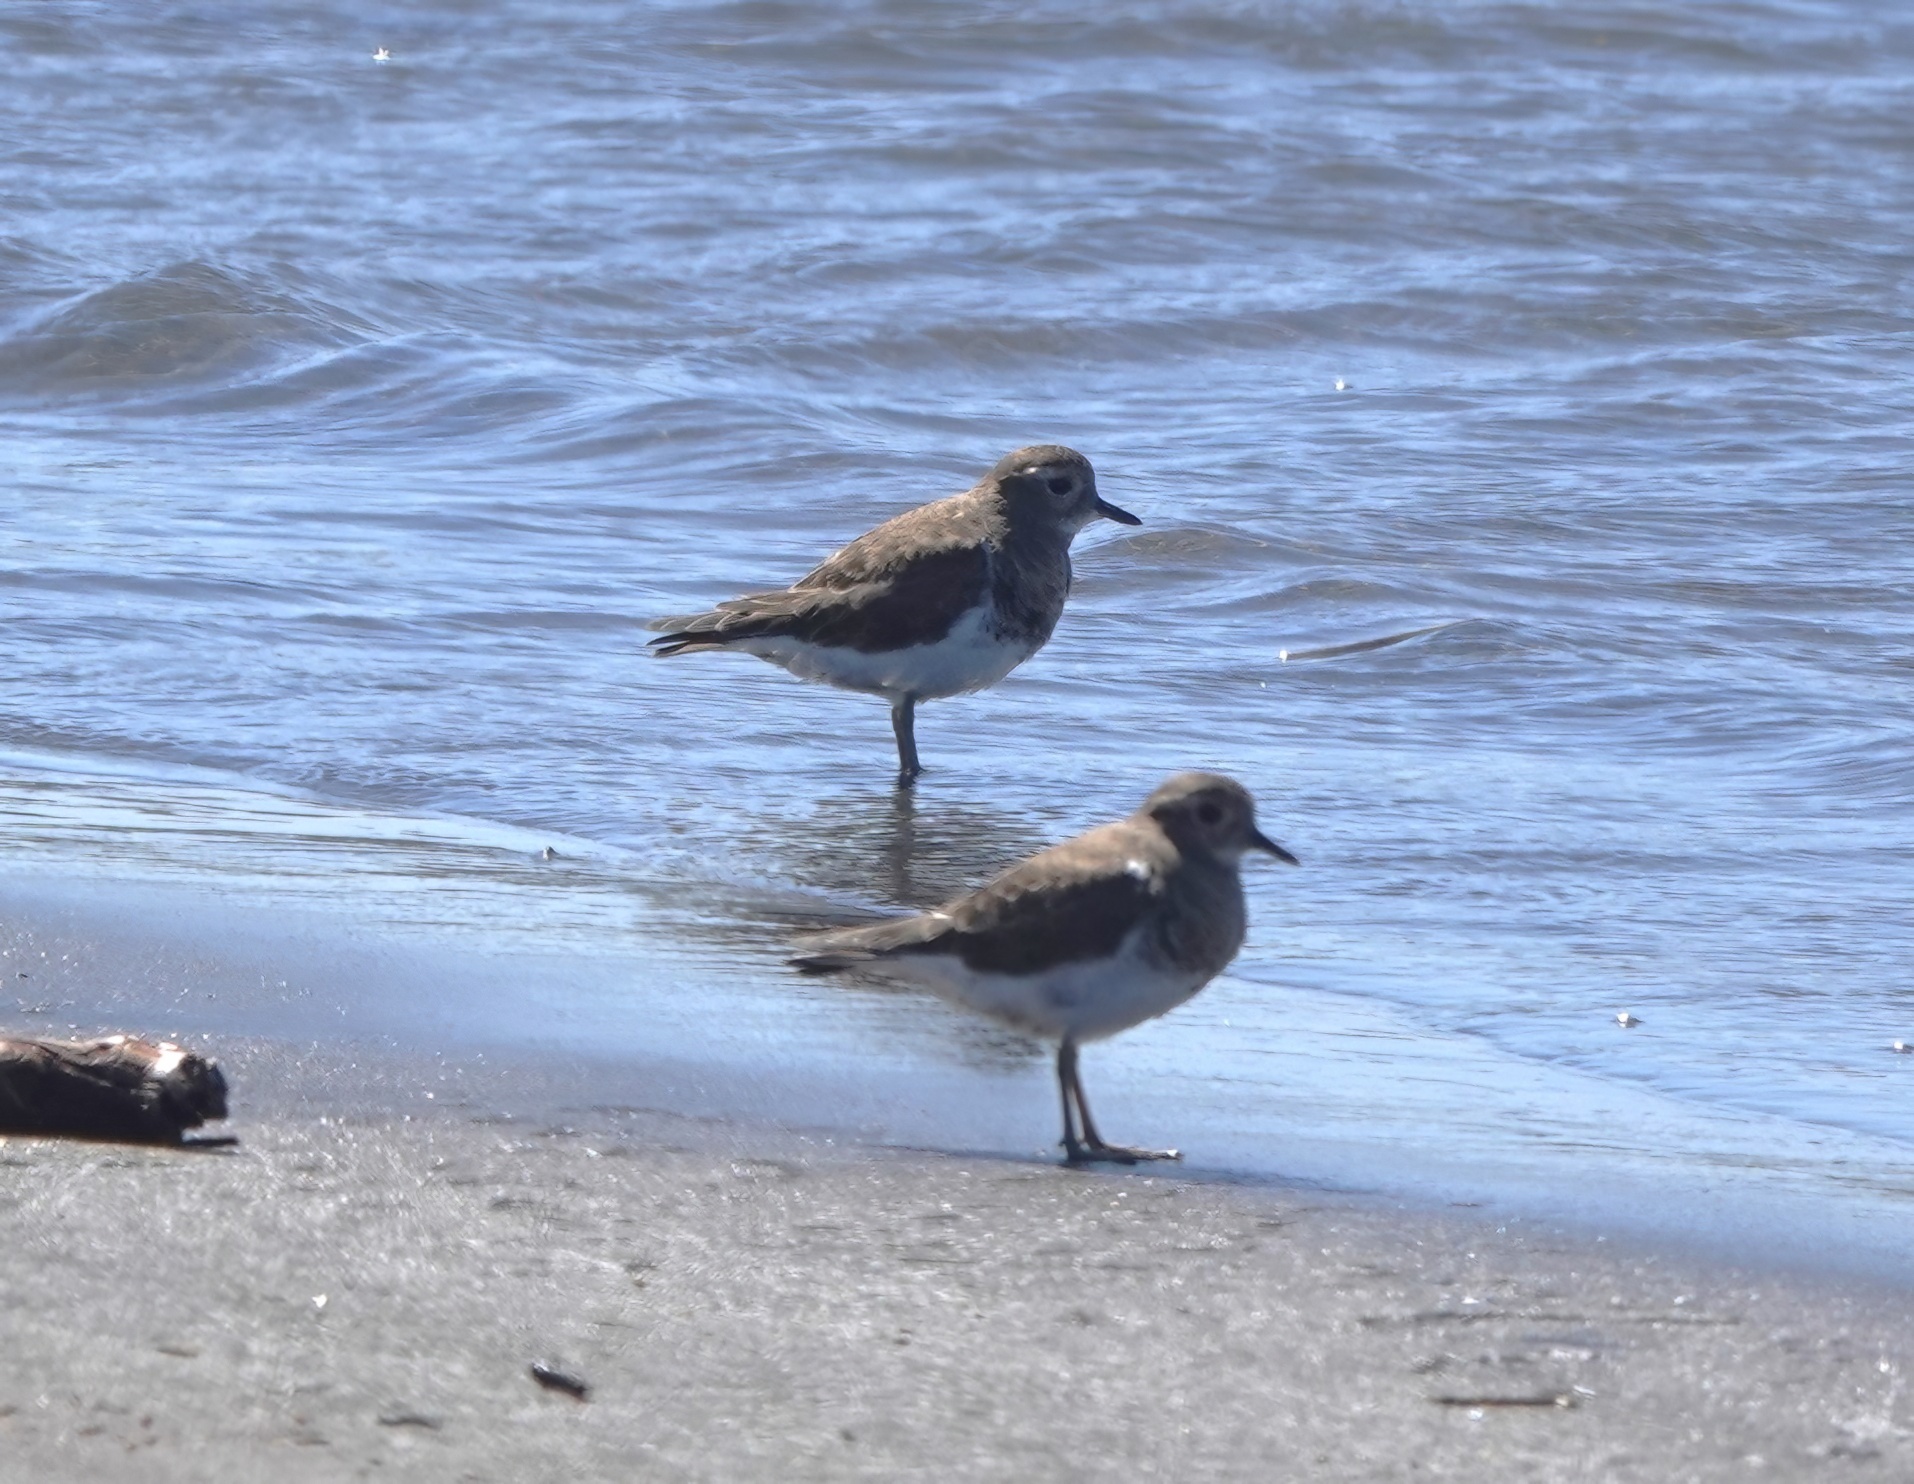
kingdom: Animalia
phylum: Chordata
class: Aves
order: Charadriiformes
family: Charadriidae
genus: Charadrius
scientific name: Charadrius modestus
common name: Rufous-chested plover
